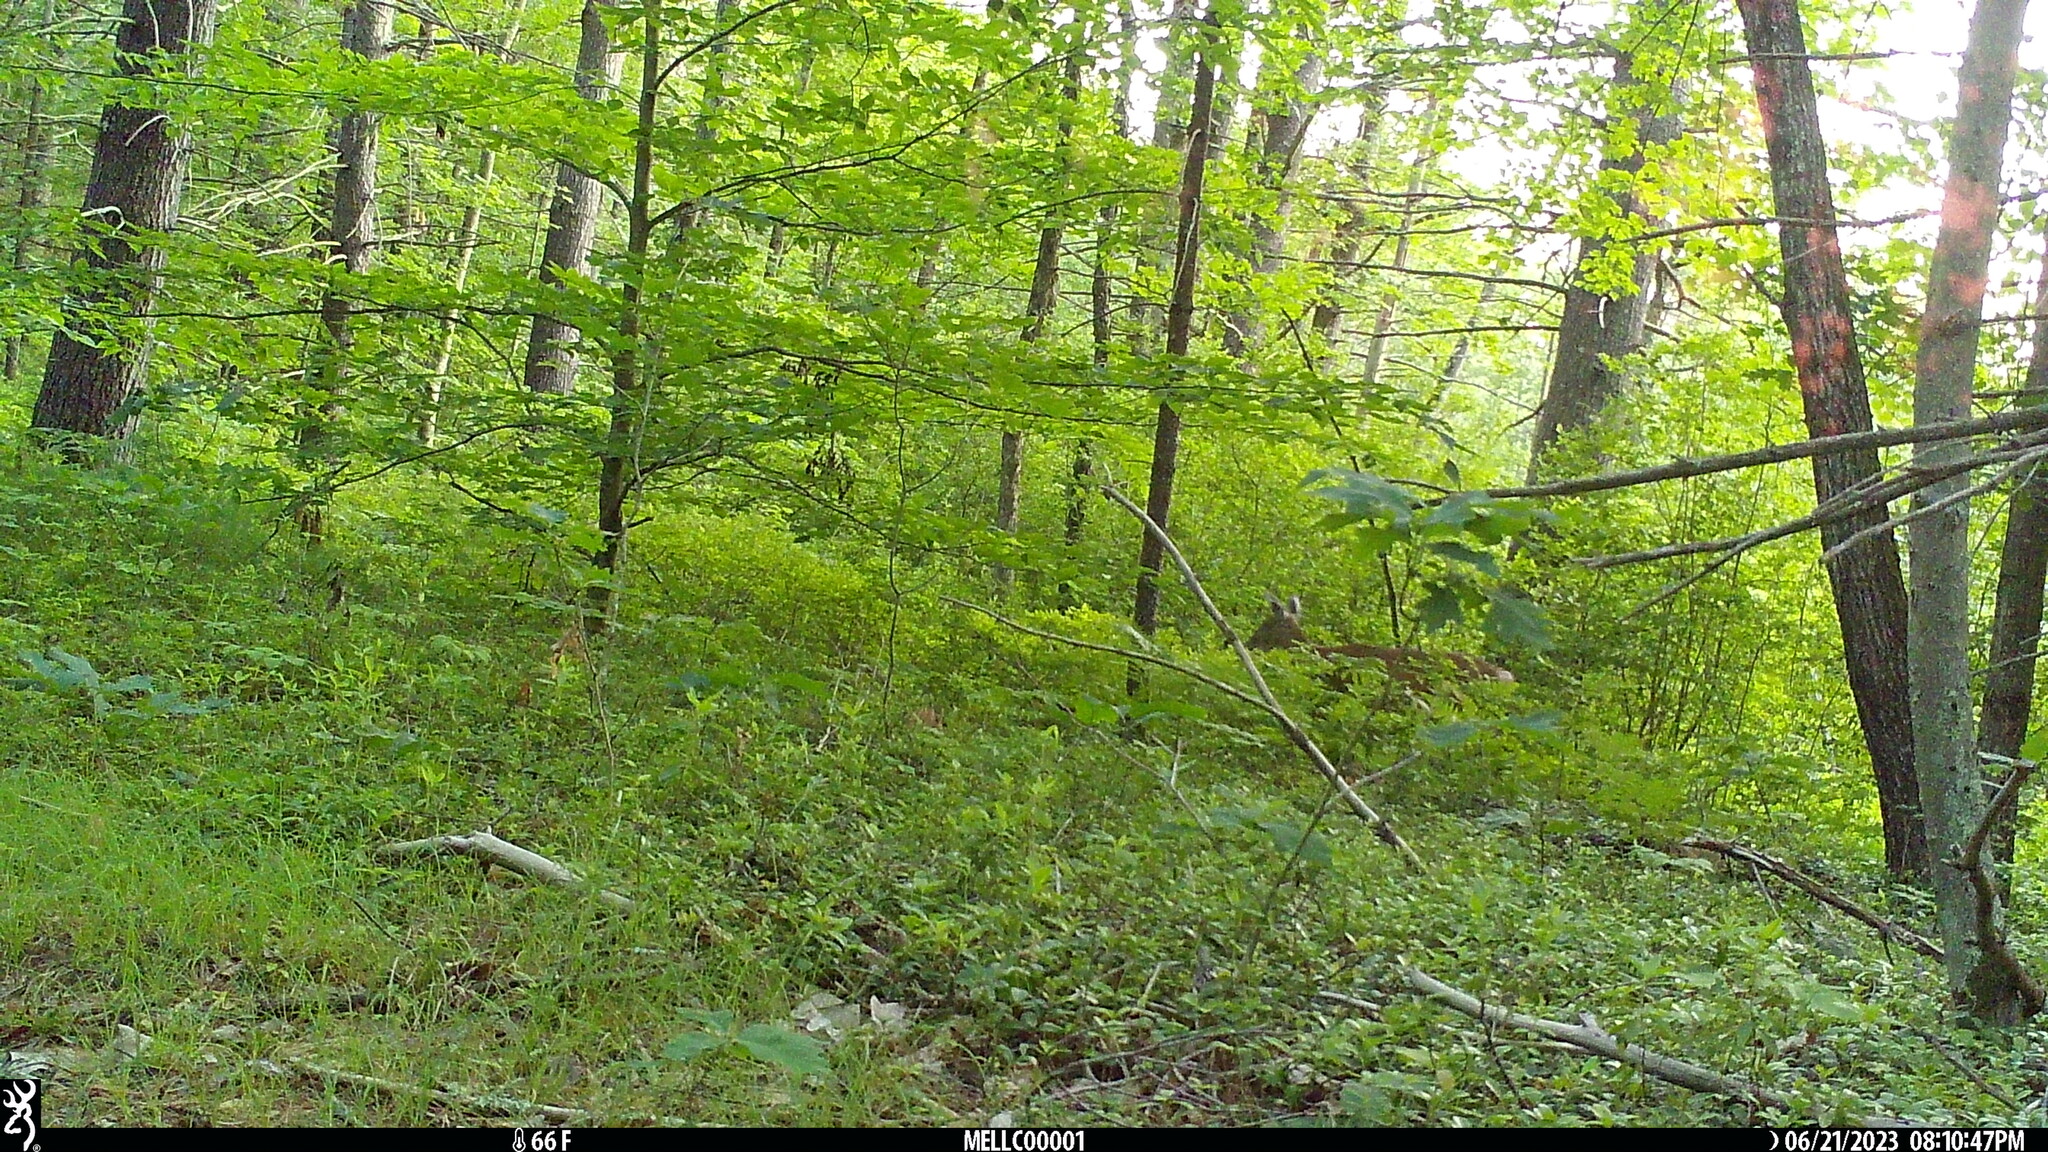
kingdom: Animalia
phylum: Chordata
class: Mammalia
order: Artiodactyla
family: Cervidae
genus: Odocoileus
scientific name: Odocoileus virginianus
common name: White-tailed deer
